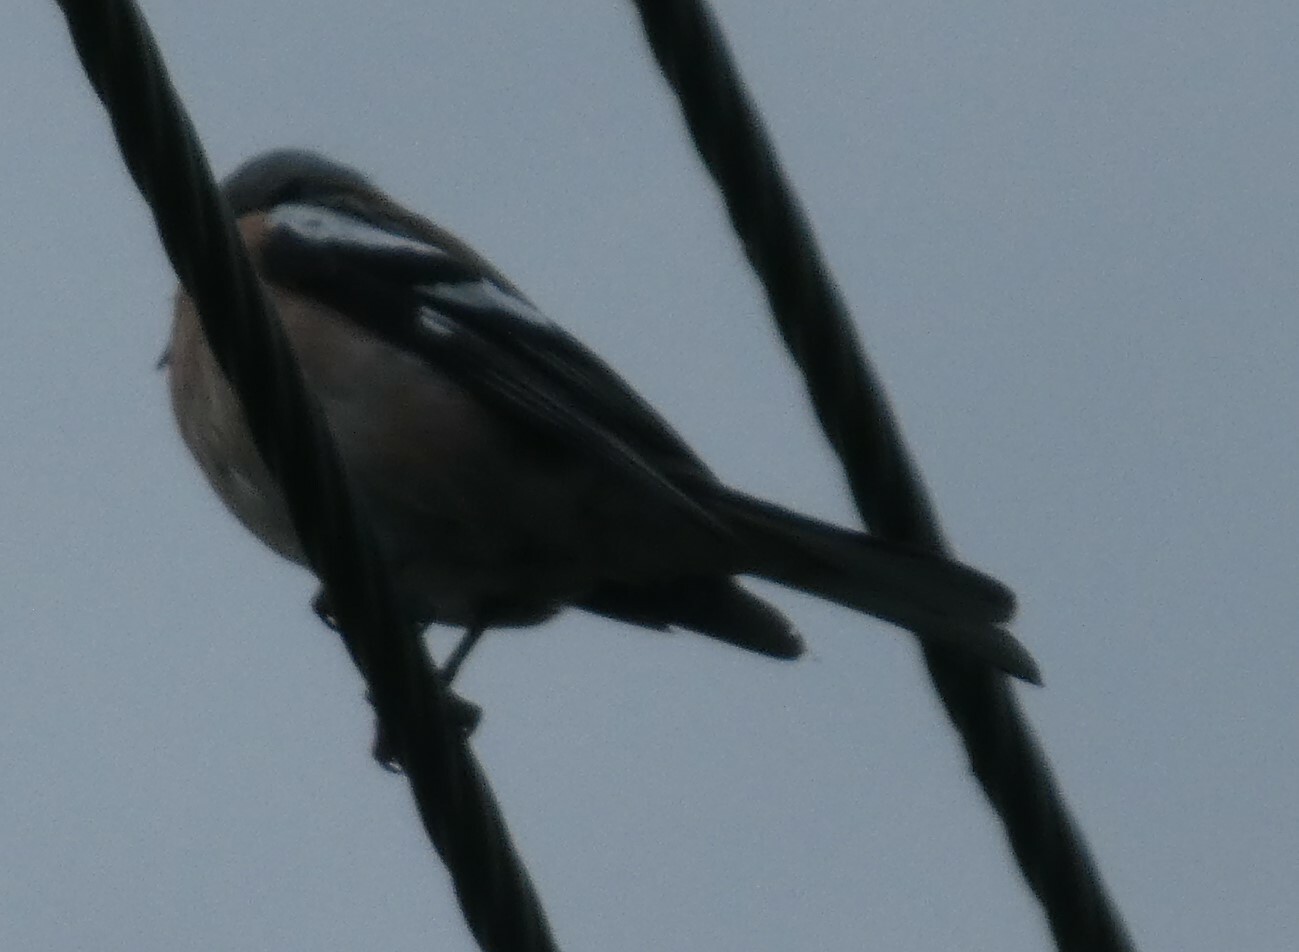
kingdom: Animalia
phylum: Chordata
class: Aves
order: Passeriformes
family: Fringillidae
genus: Fringilla
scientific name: Fringilla coelebs
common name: Common chaffinch
